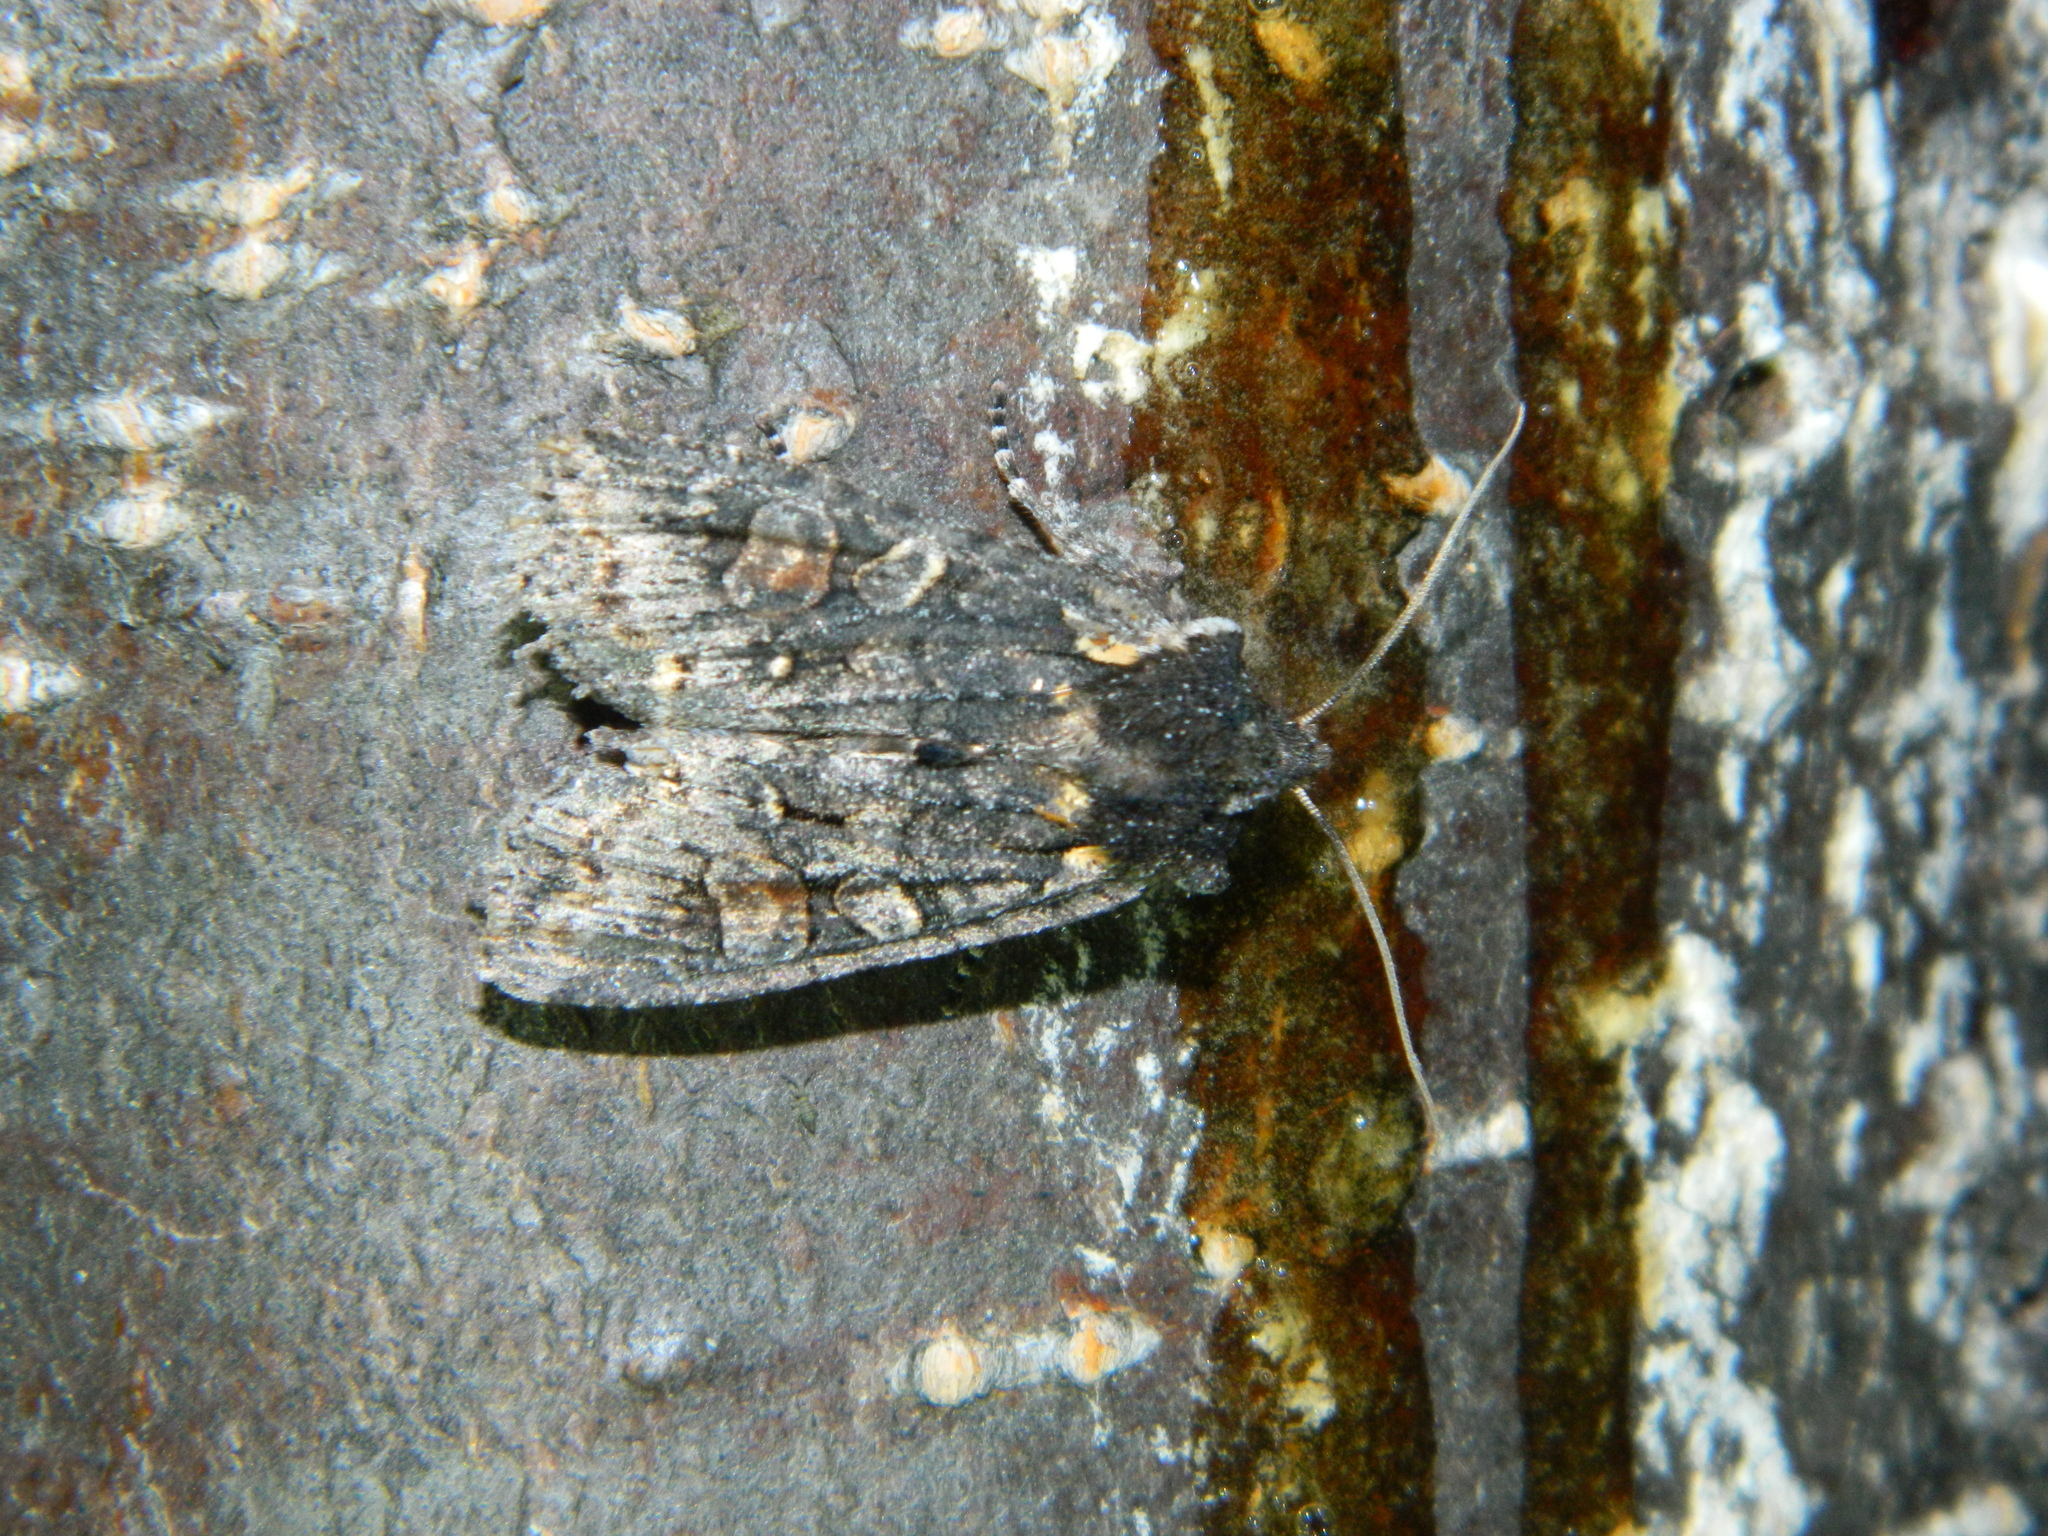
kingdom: Animalia
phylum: Arthropoda
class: Insecta
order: Lepidoptera
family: Noctuidae
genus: Lithophane
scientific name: Lithophane pexata
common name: Plush-naped pinion moth
